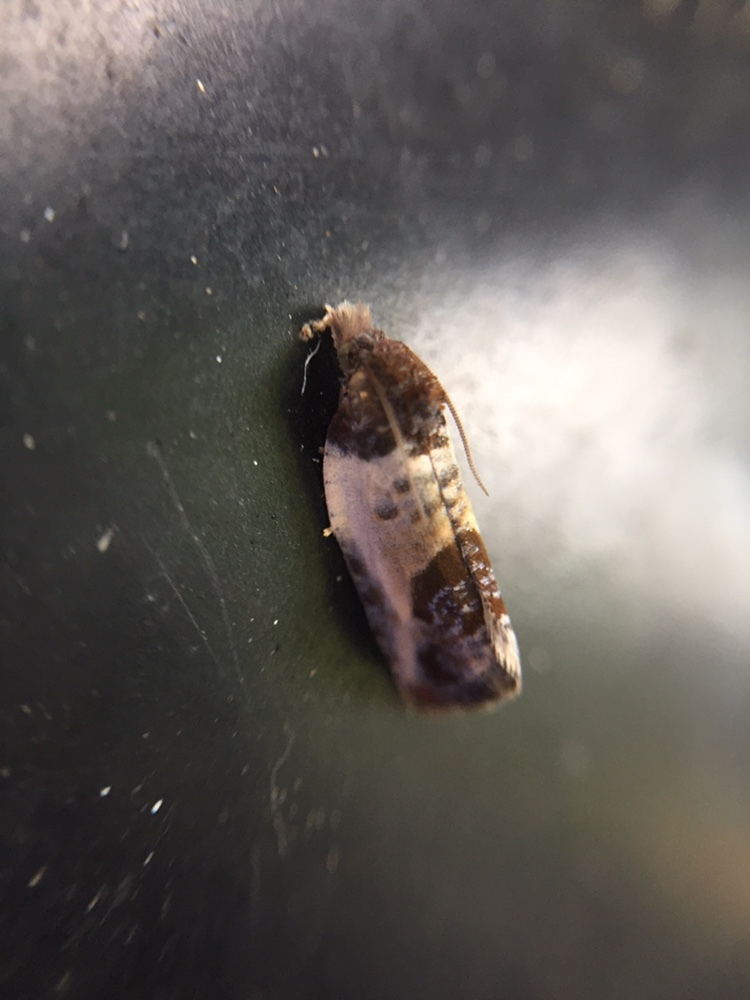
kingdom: Animalia
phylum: Arthropoda
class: Insecta
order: Lepidoptera
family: Tortricidae
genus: Argyroploce
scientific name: Argyroploce chlorosaris
